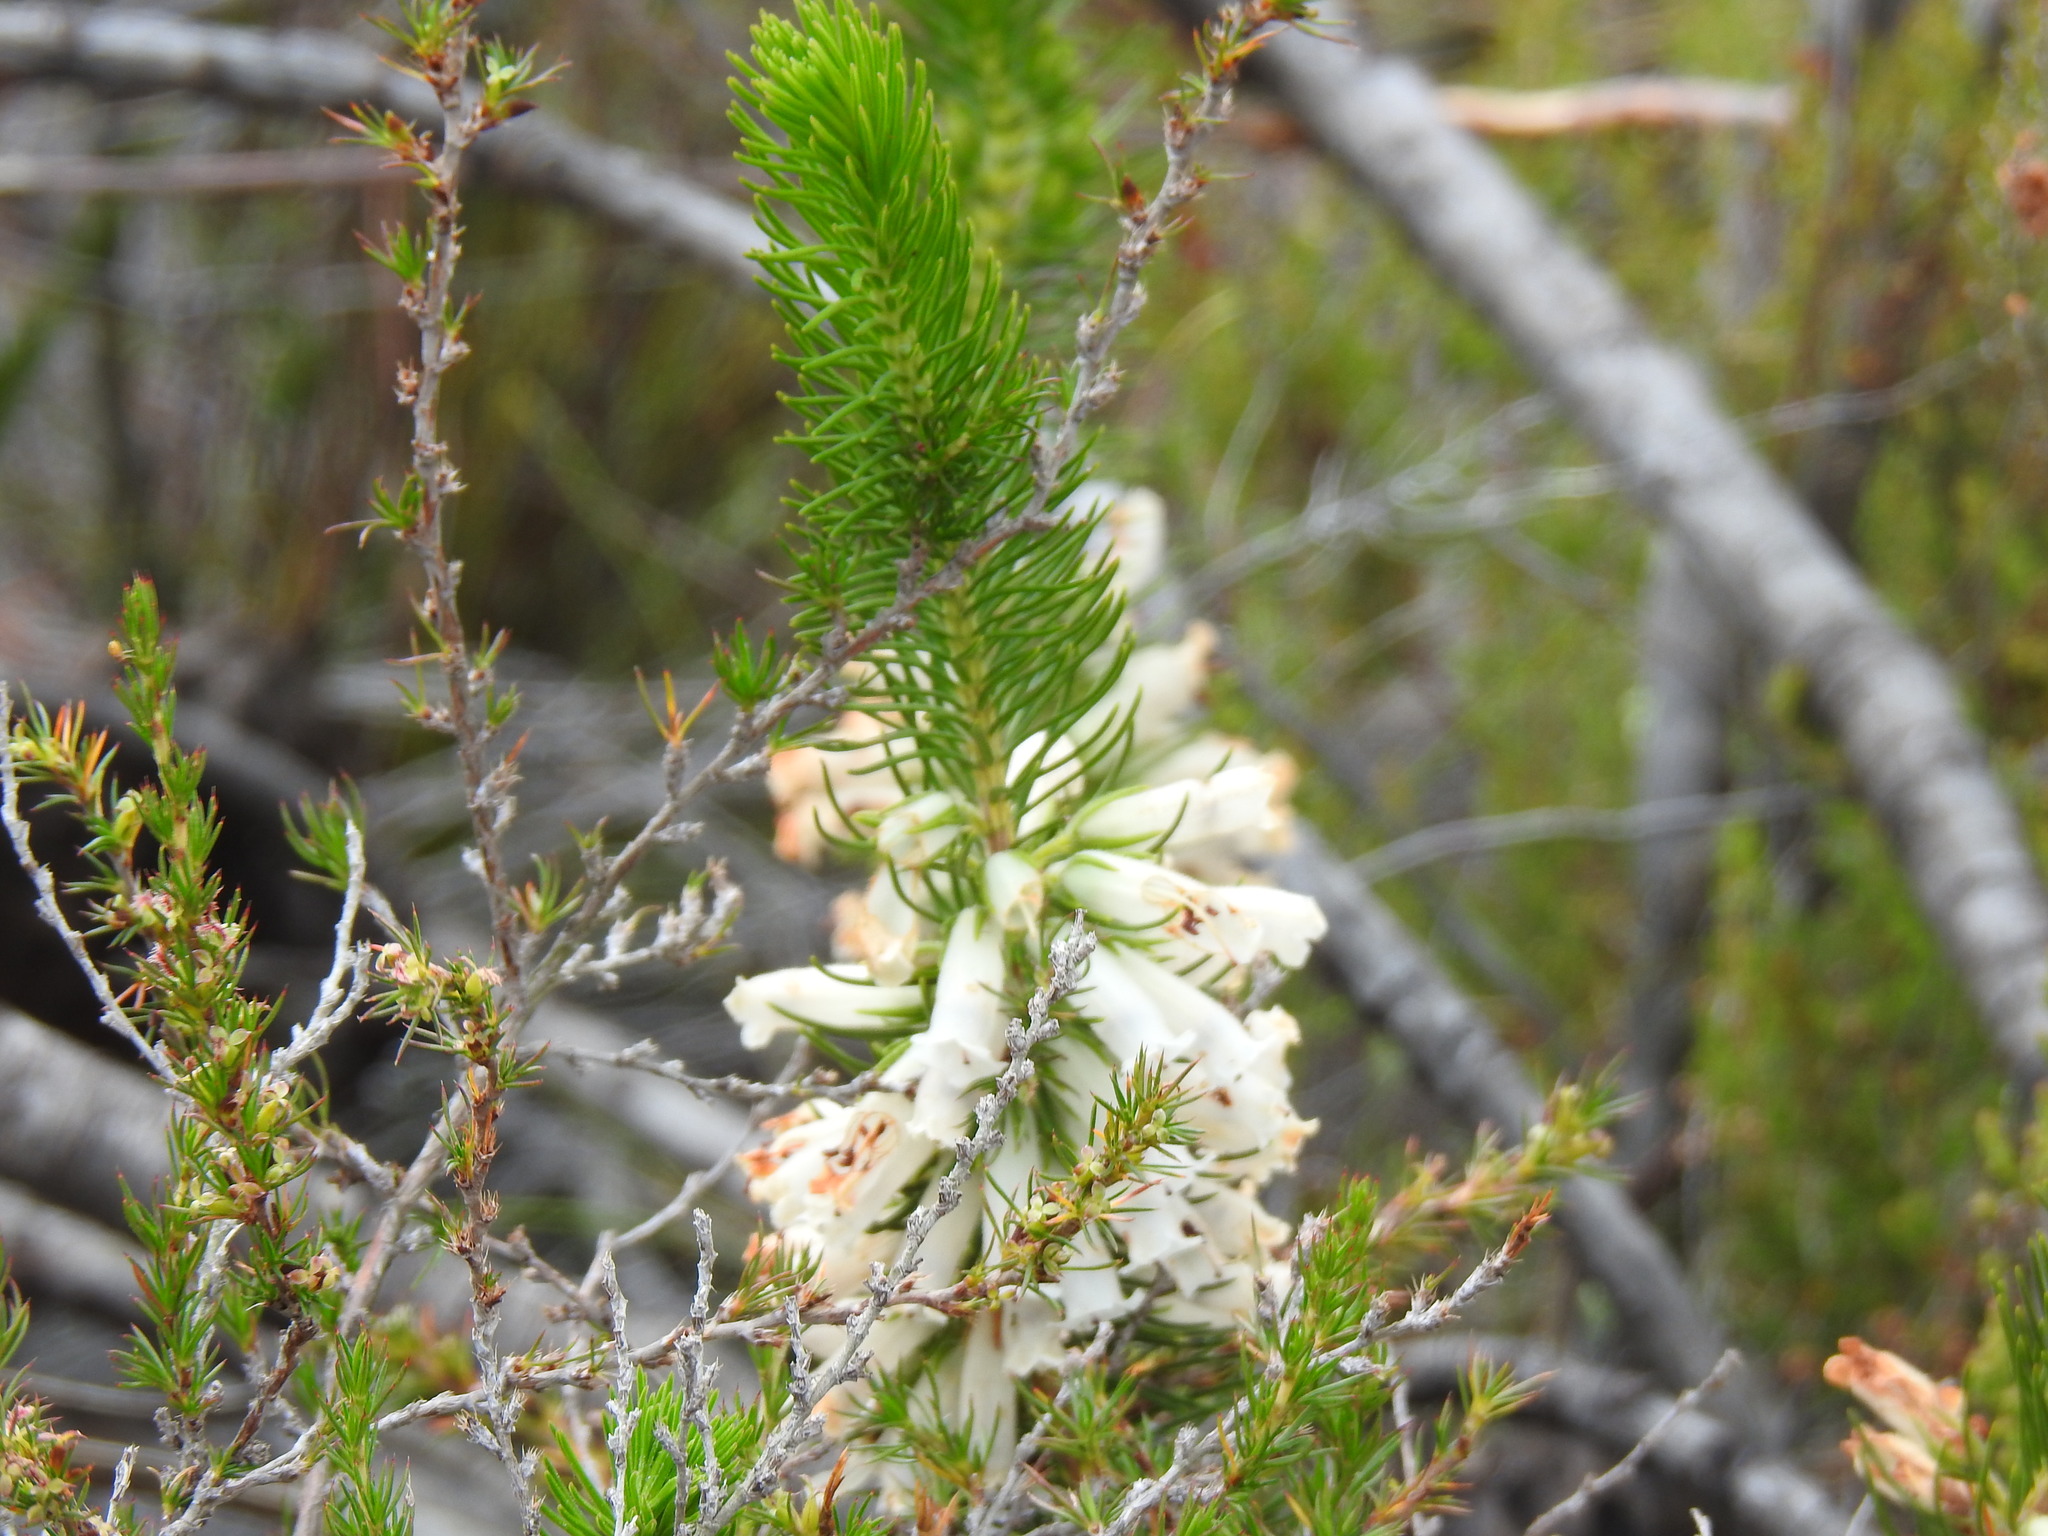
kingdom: Plantae
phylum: Tracheophyta
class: Magnoliopsida
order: Ericales
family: Ericaceae
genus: Erica
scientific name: Erica viscaria
